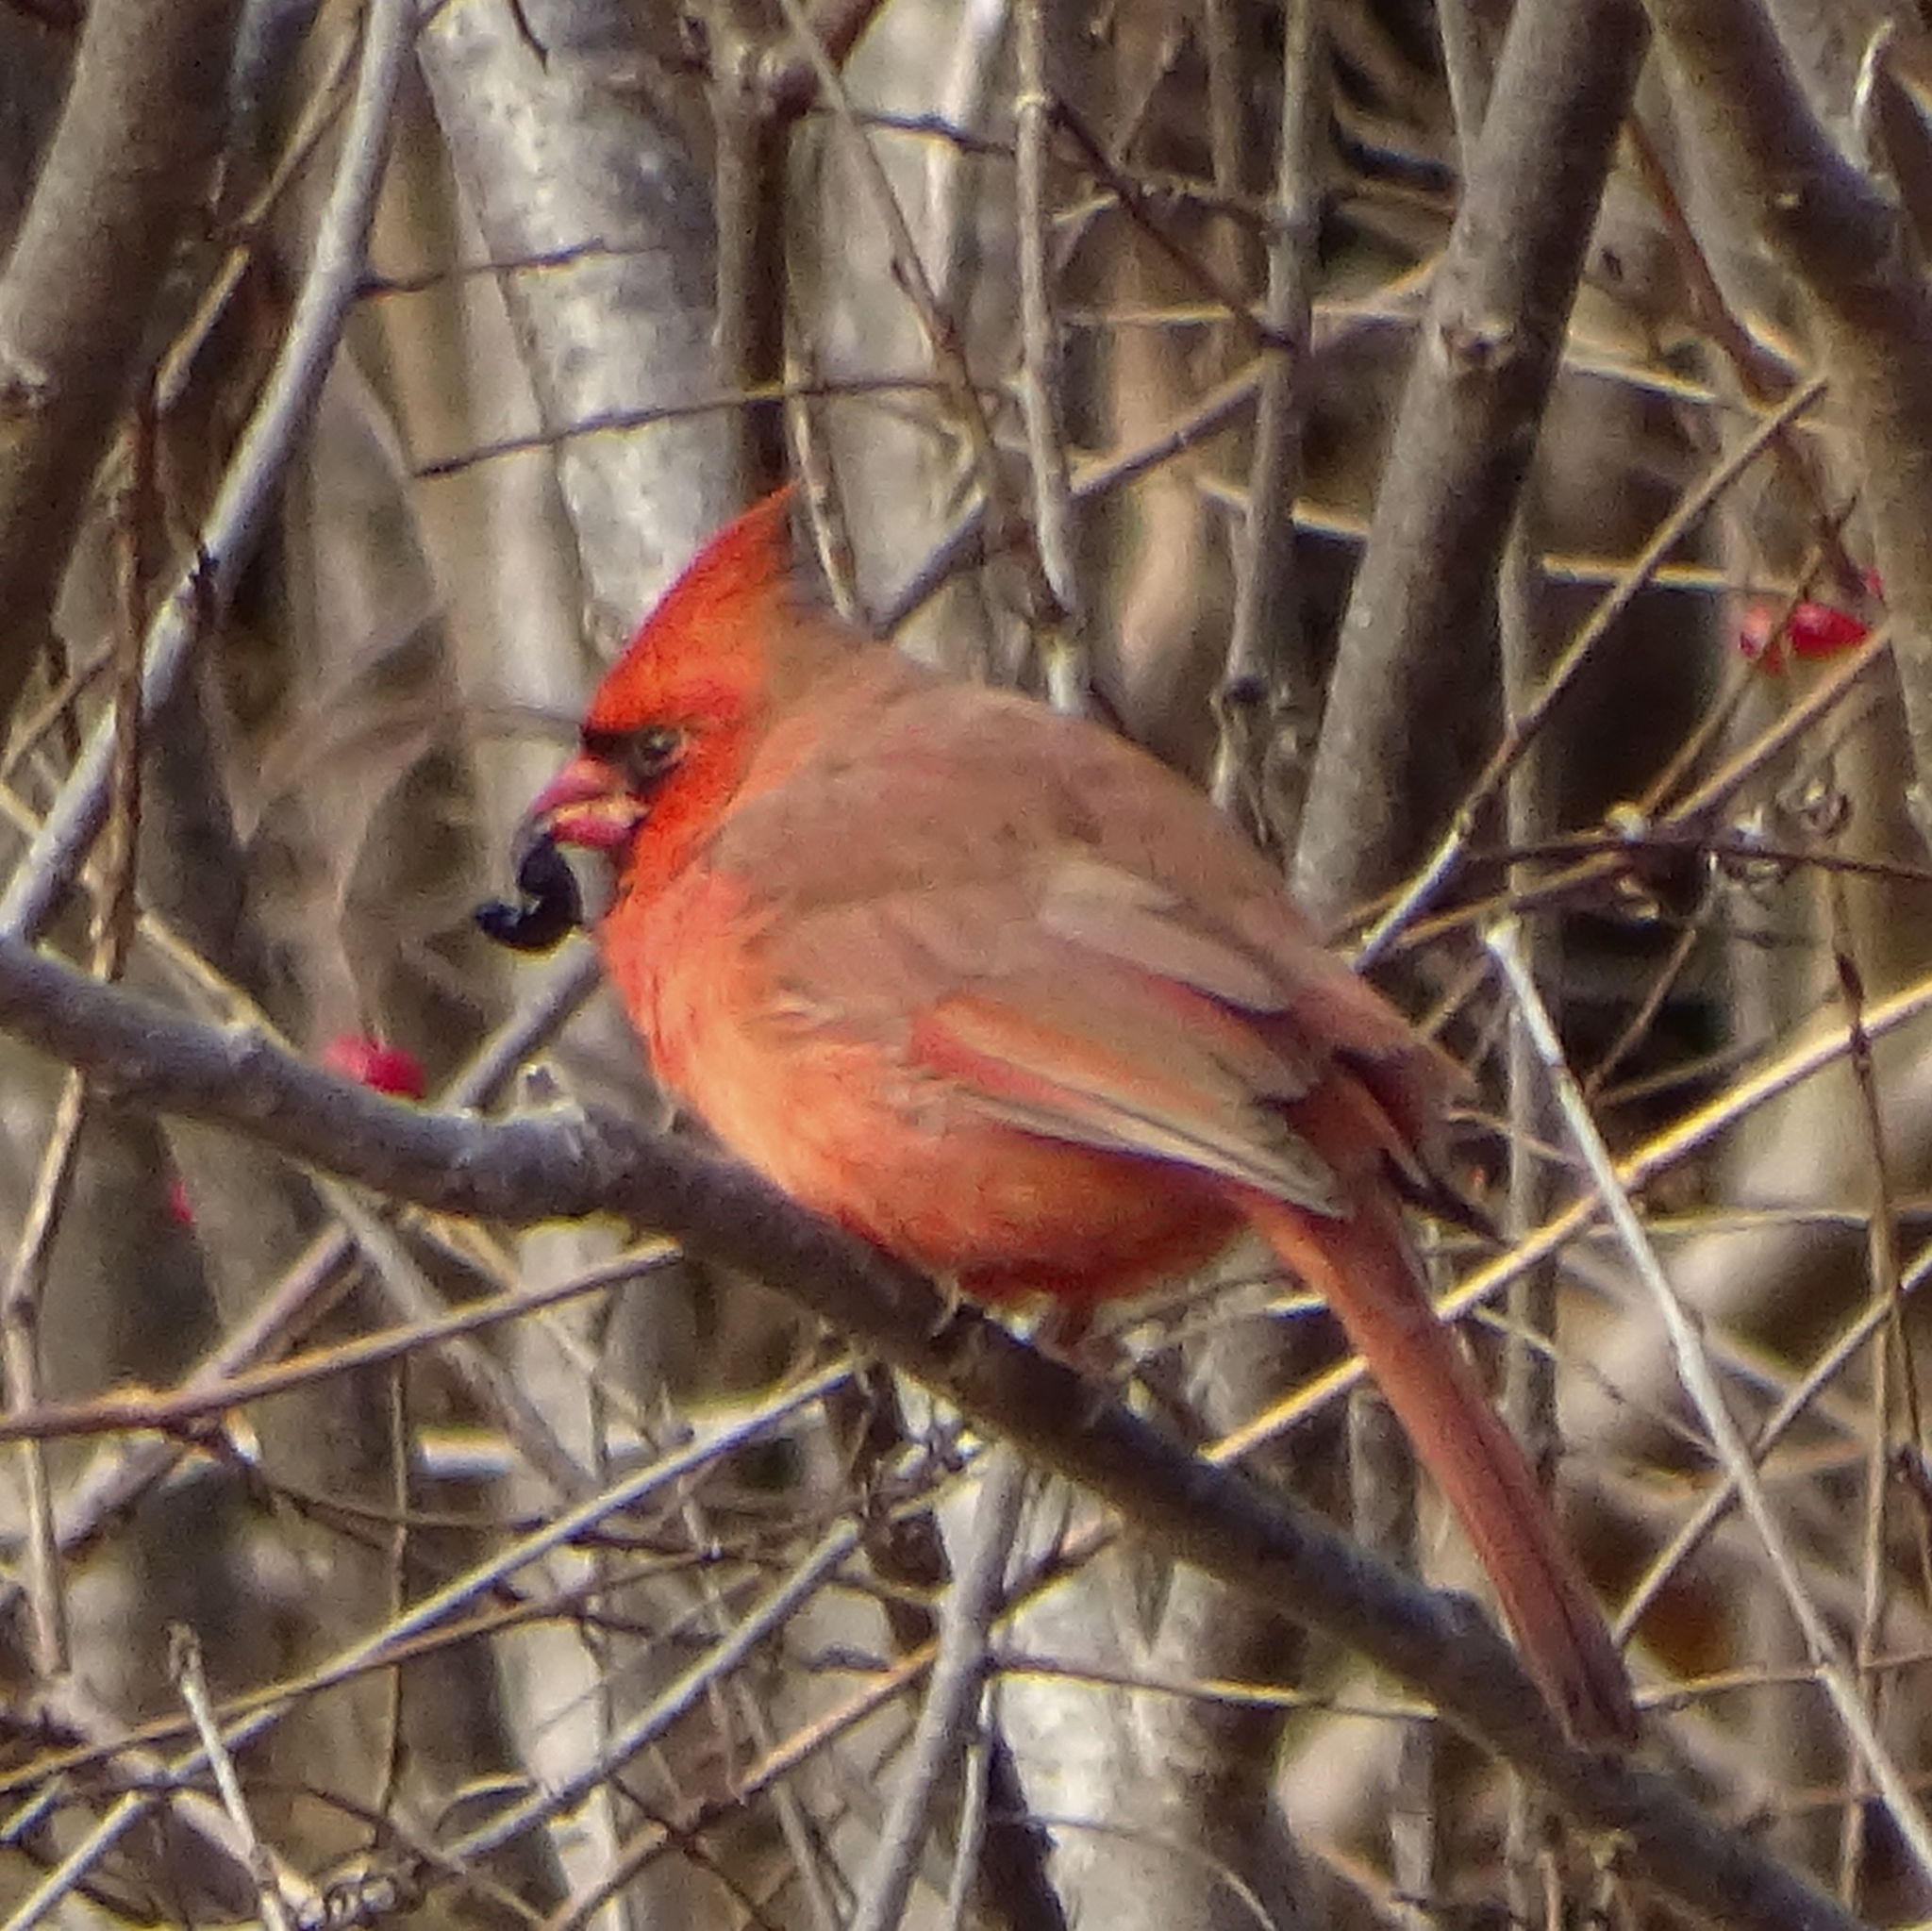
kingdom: Animalia
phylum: Chordata
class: Aves
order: Passeriformes
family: Cardinalidae
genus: Cardinalis
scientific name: Cardinalis cardinalis
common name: Northern cardinal
